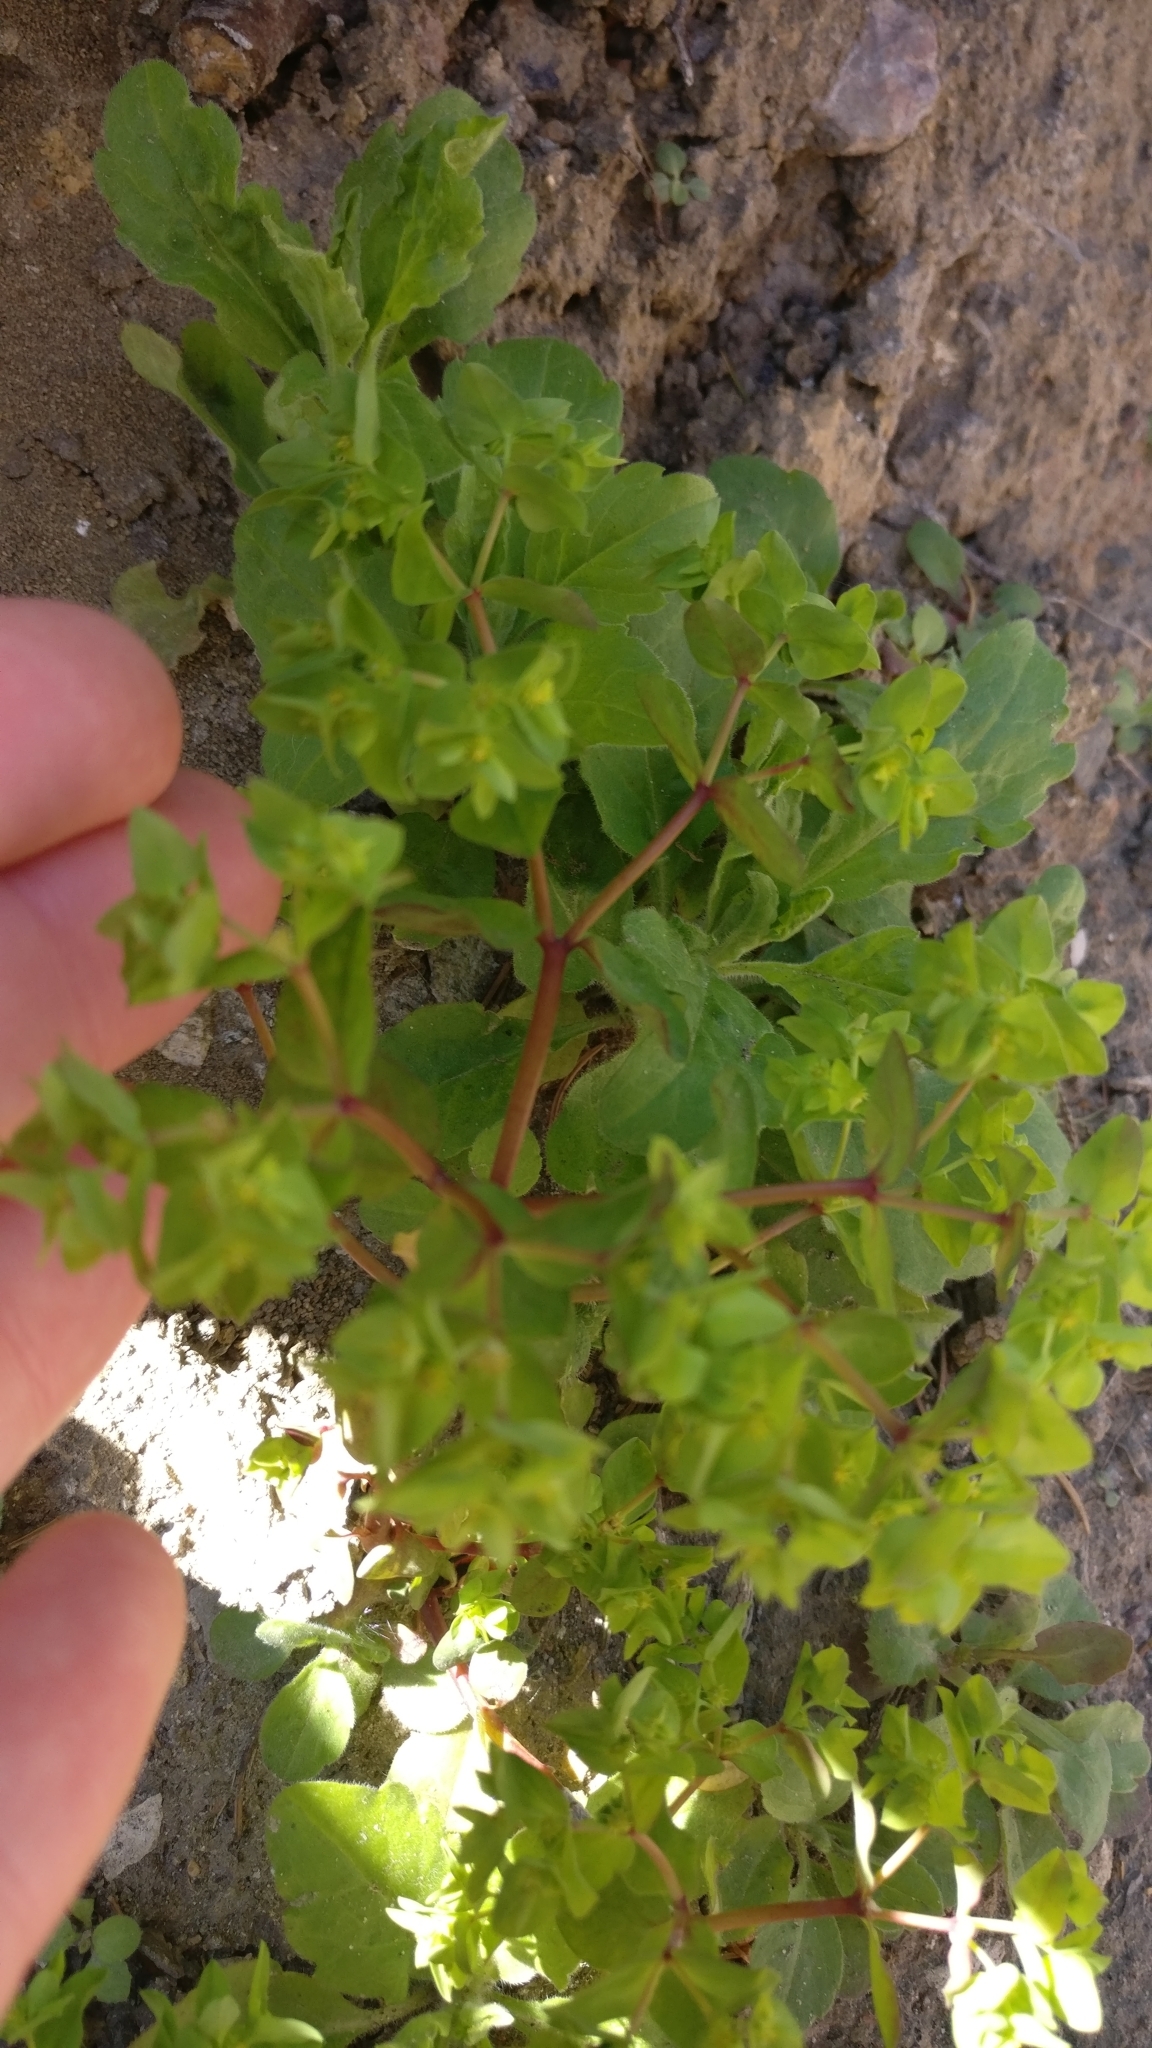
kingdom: Plantae
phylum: Tracheophyta
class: Magnoliopsida
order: Malpighiales
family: Euphorbiaceae
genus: Euphorbia
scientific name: Euphorbia peplus
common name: Petty spurge
